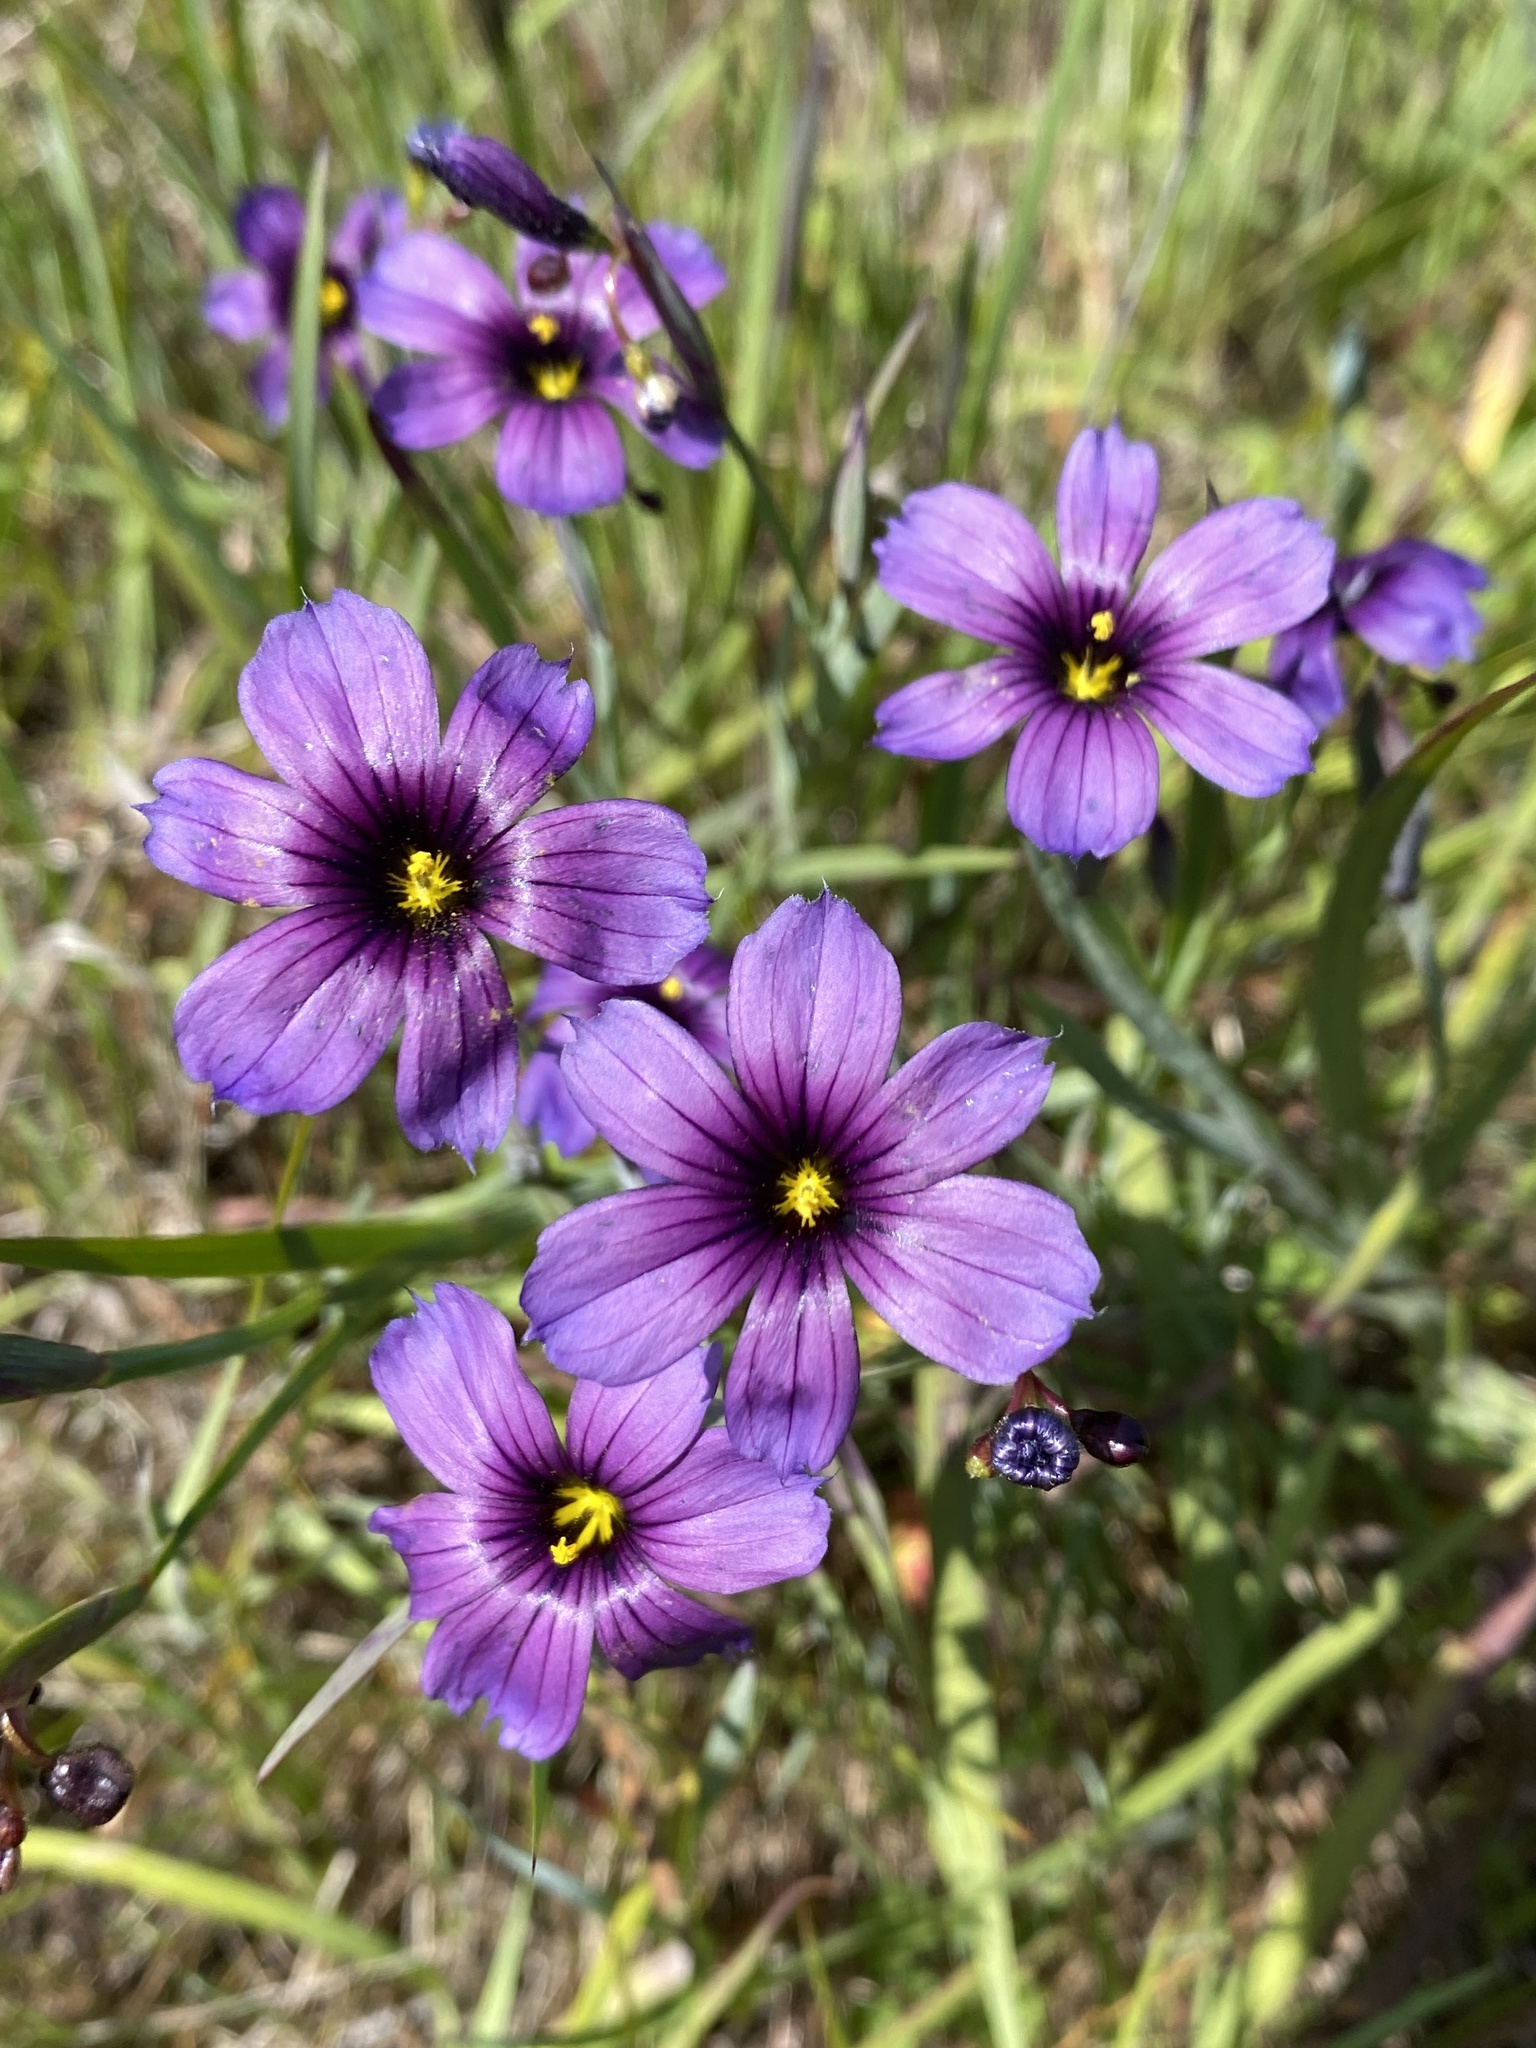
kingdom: Plantae
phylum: Tracheophyta
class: Liliopsida
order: Asparagales
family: Iridaceae
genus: Sisyrinchium
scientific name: Sisyrinchium bellum
